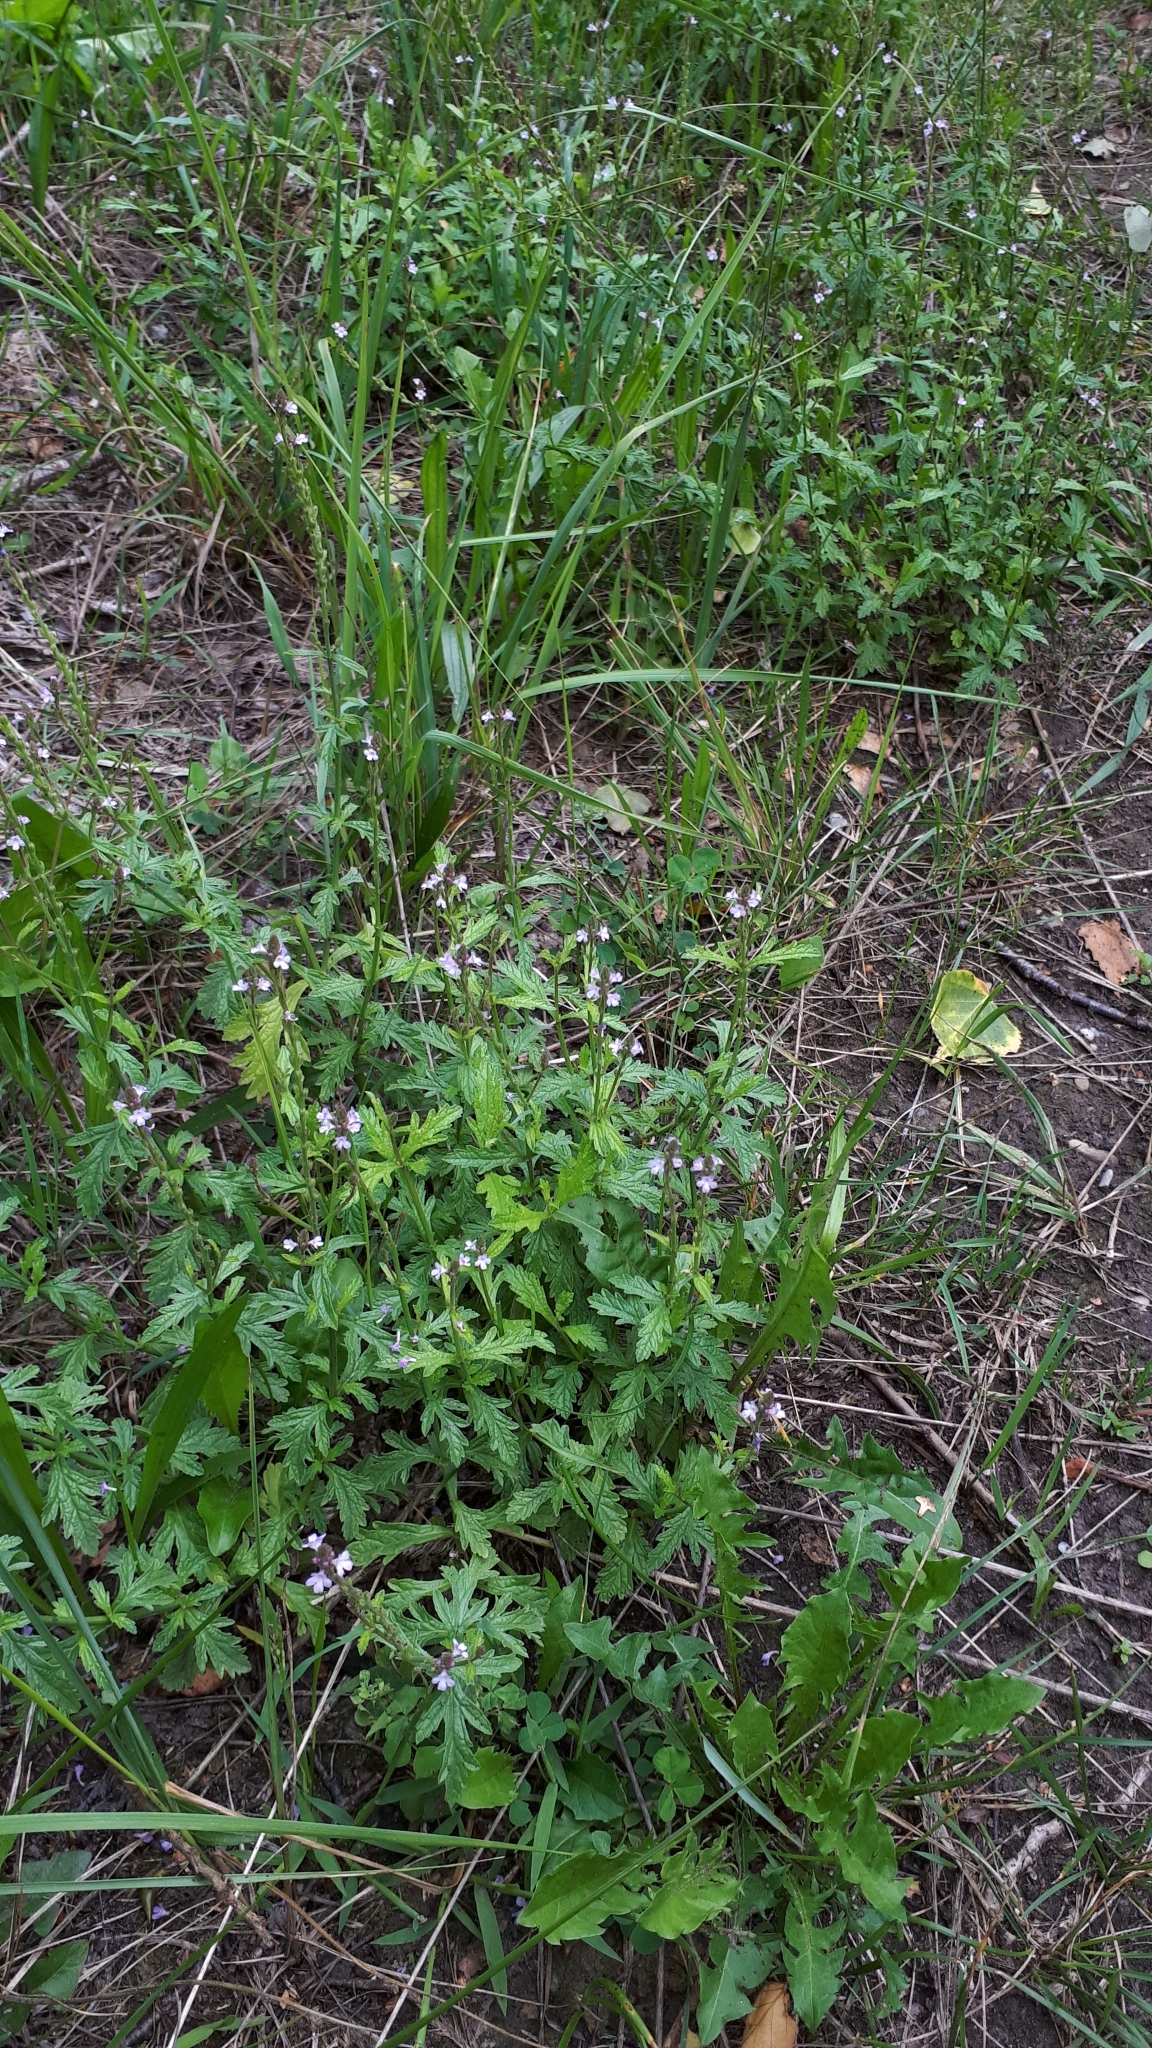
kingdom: Plantae
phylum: Tracheophyta
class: Magnoliopsida
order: Lamiales
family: Verbenaceae
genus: Verbena
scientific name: Verbena officinalis
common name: Vervain
